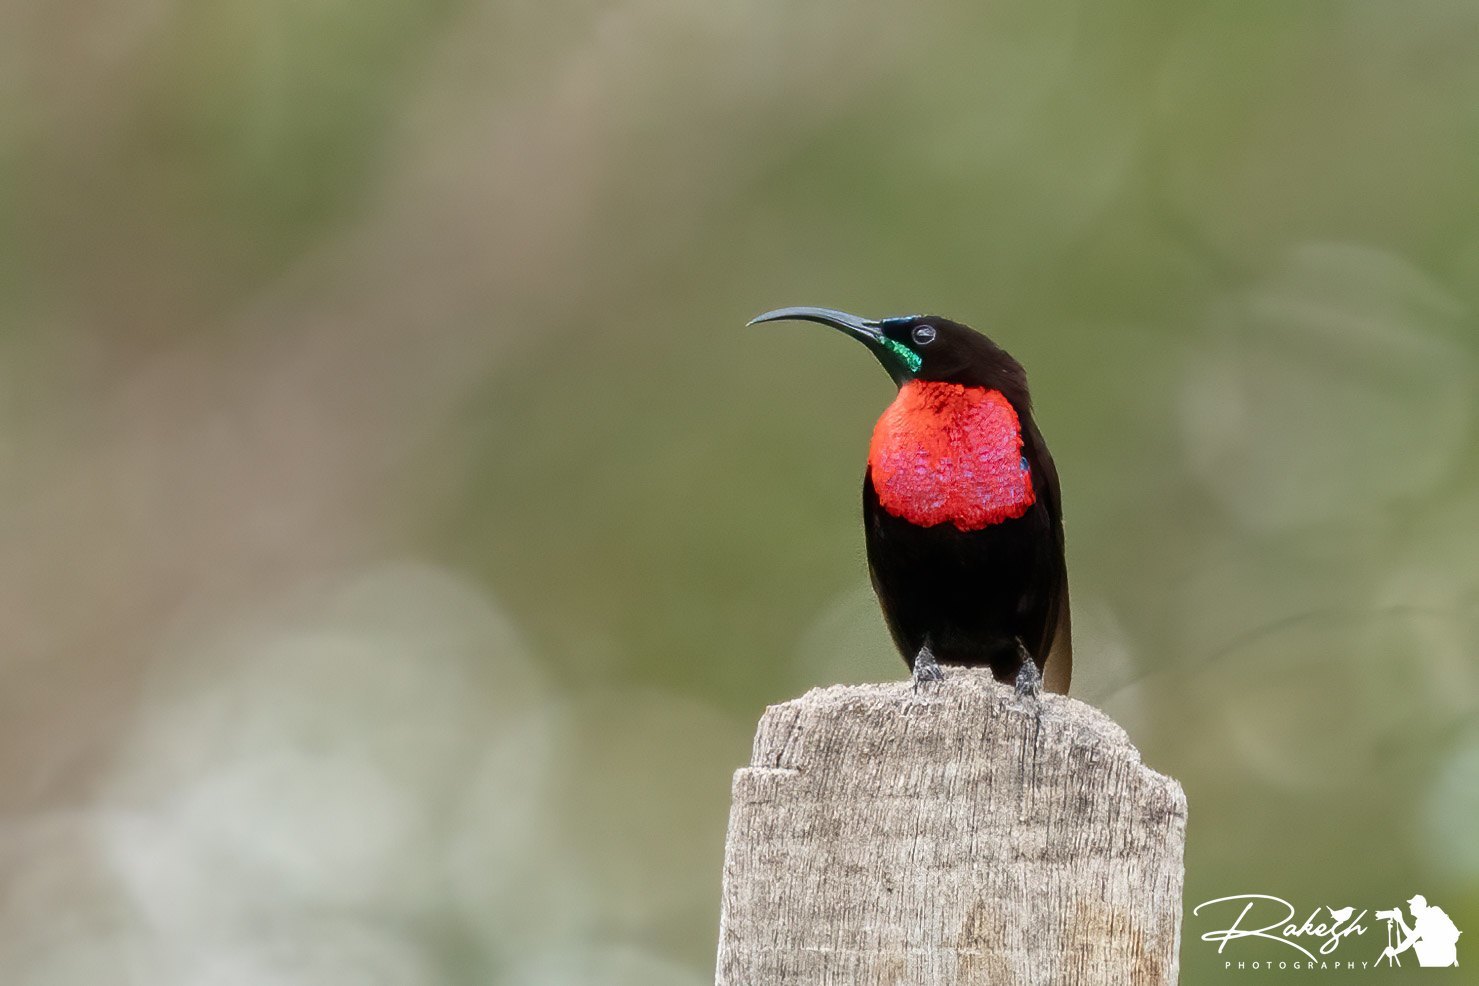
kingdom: Animalia
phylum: Chordata
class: Aves
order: Passeriformes
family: Nectariniidae
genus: Chalcomitra
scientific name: Chalcomitra senegalensis
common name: Scarlet-chested sunbird
